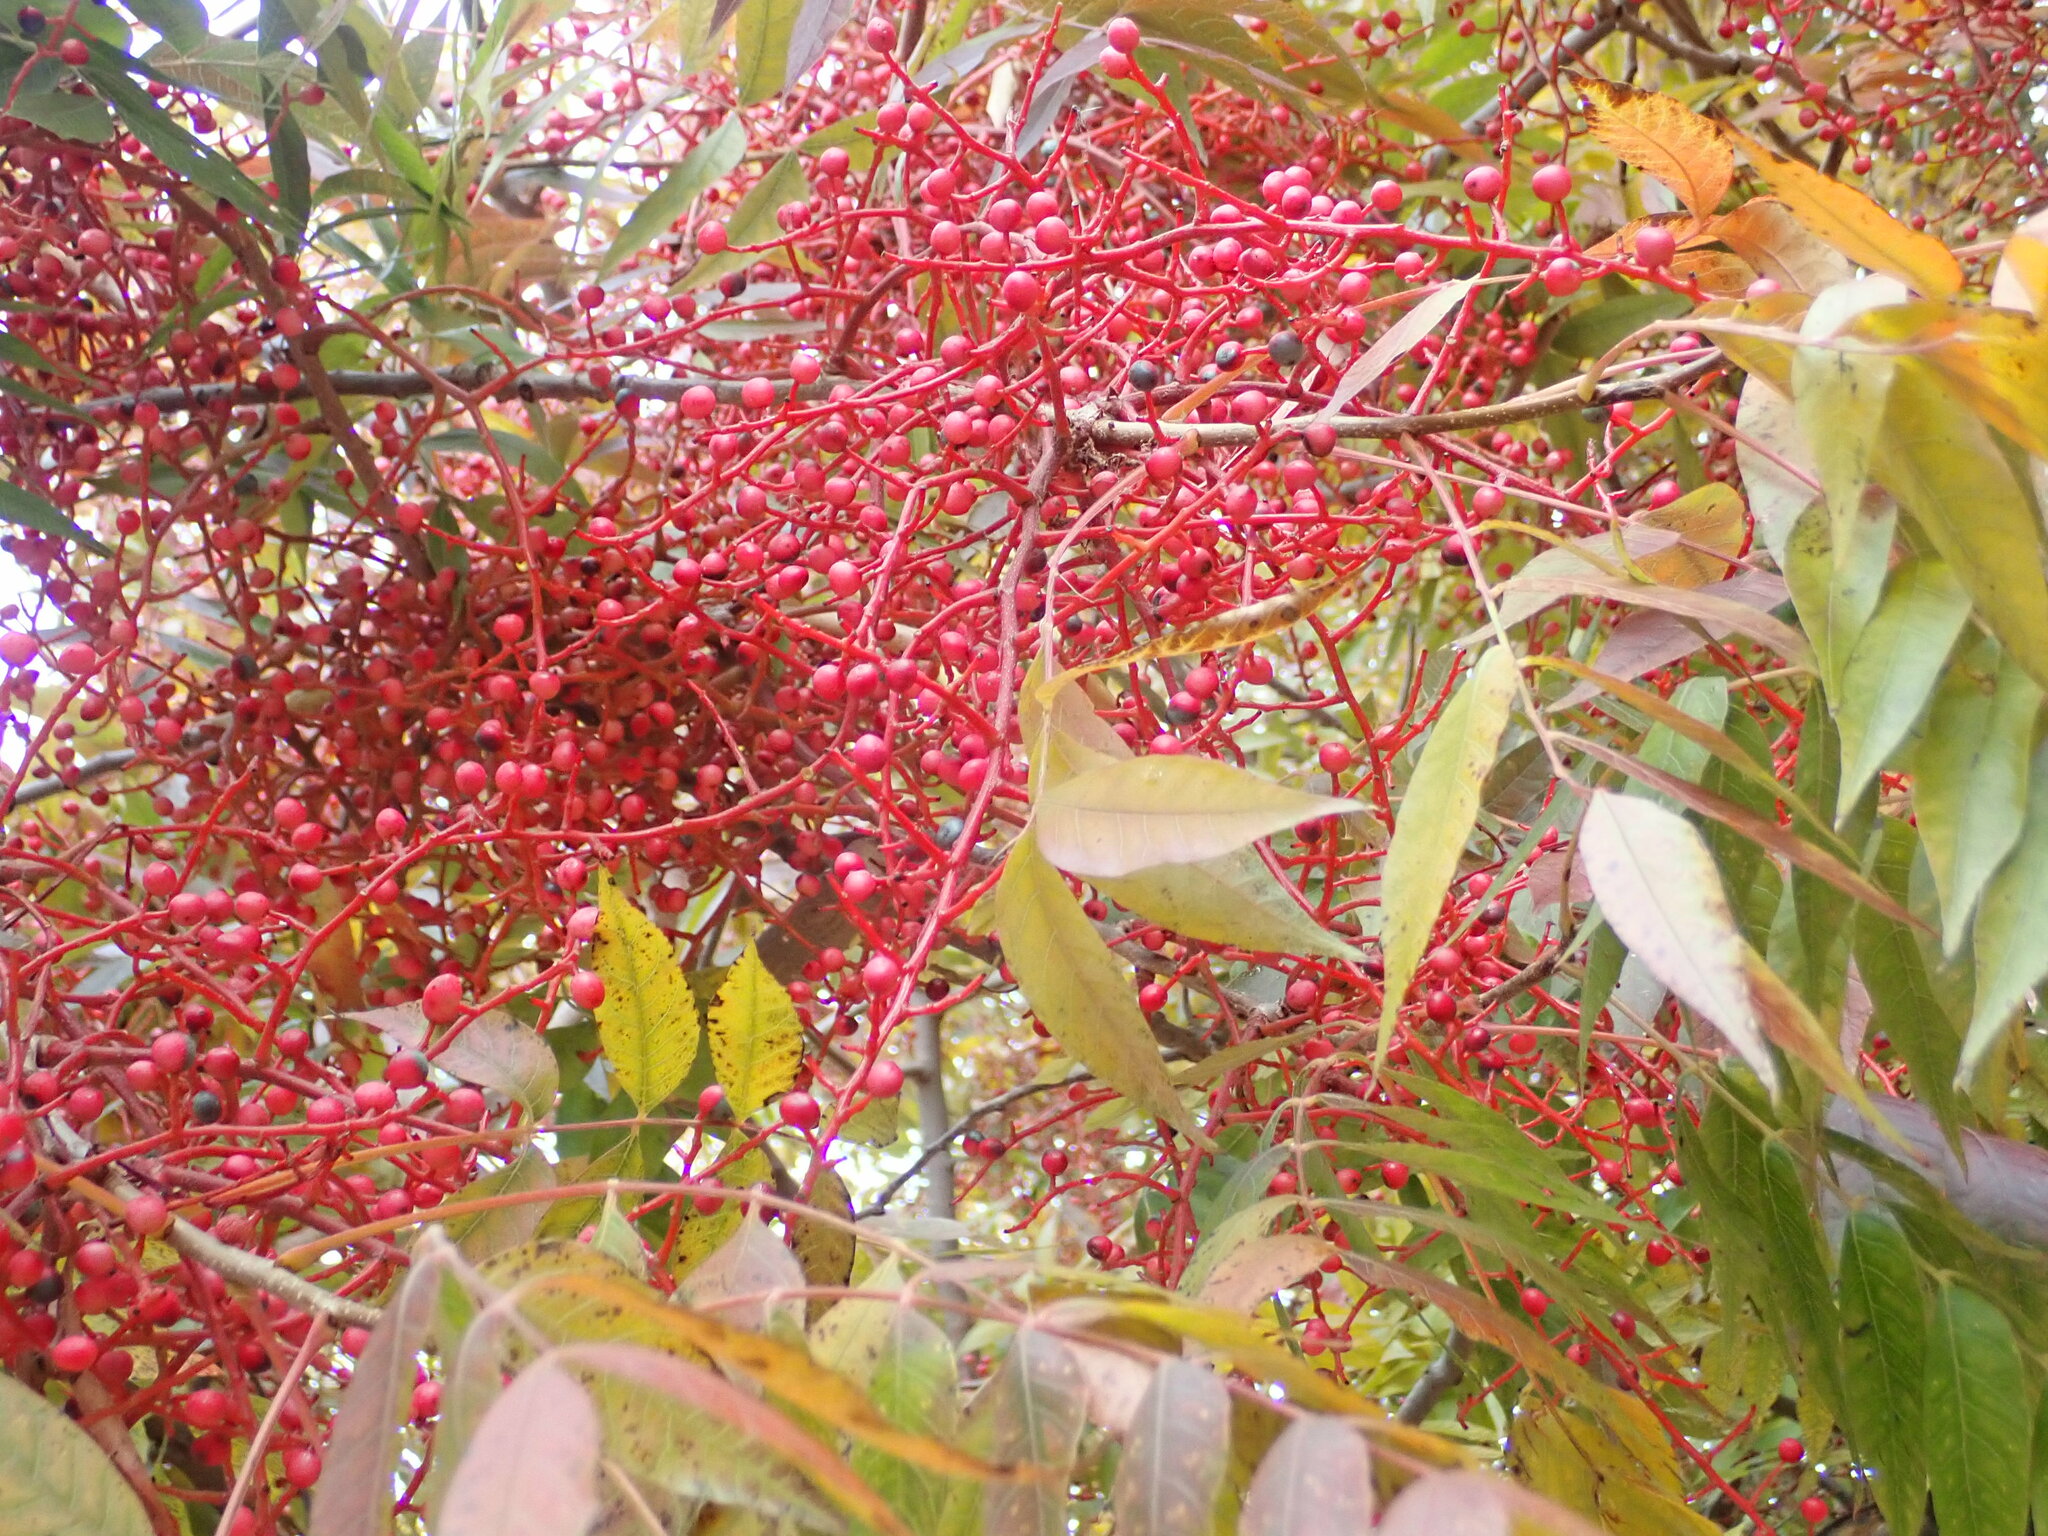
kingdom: Plantae
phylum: Tracheophyta
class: Magnoliopsida
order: Sapindales
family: Anacardiaceae
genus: Pistacia
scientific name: Pistacia chinensis
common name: Chinese pistache
